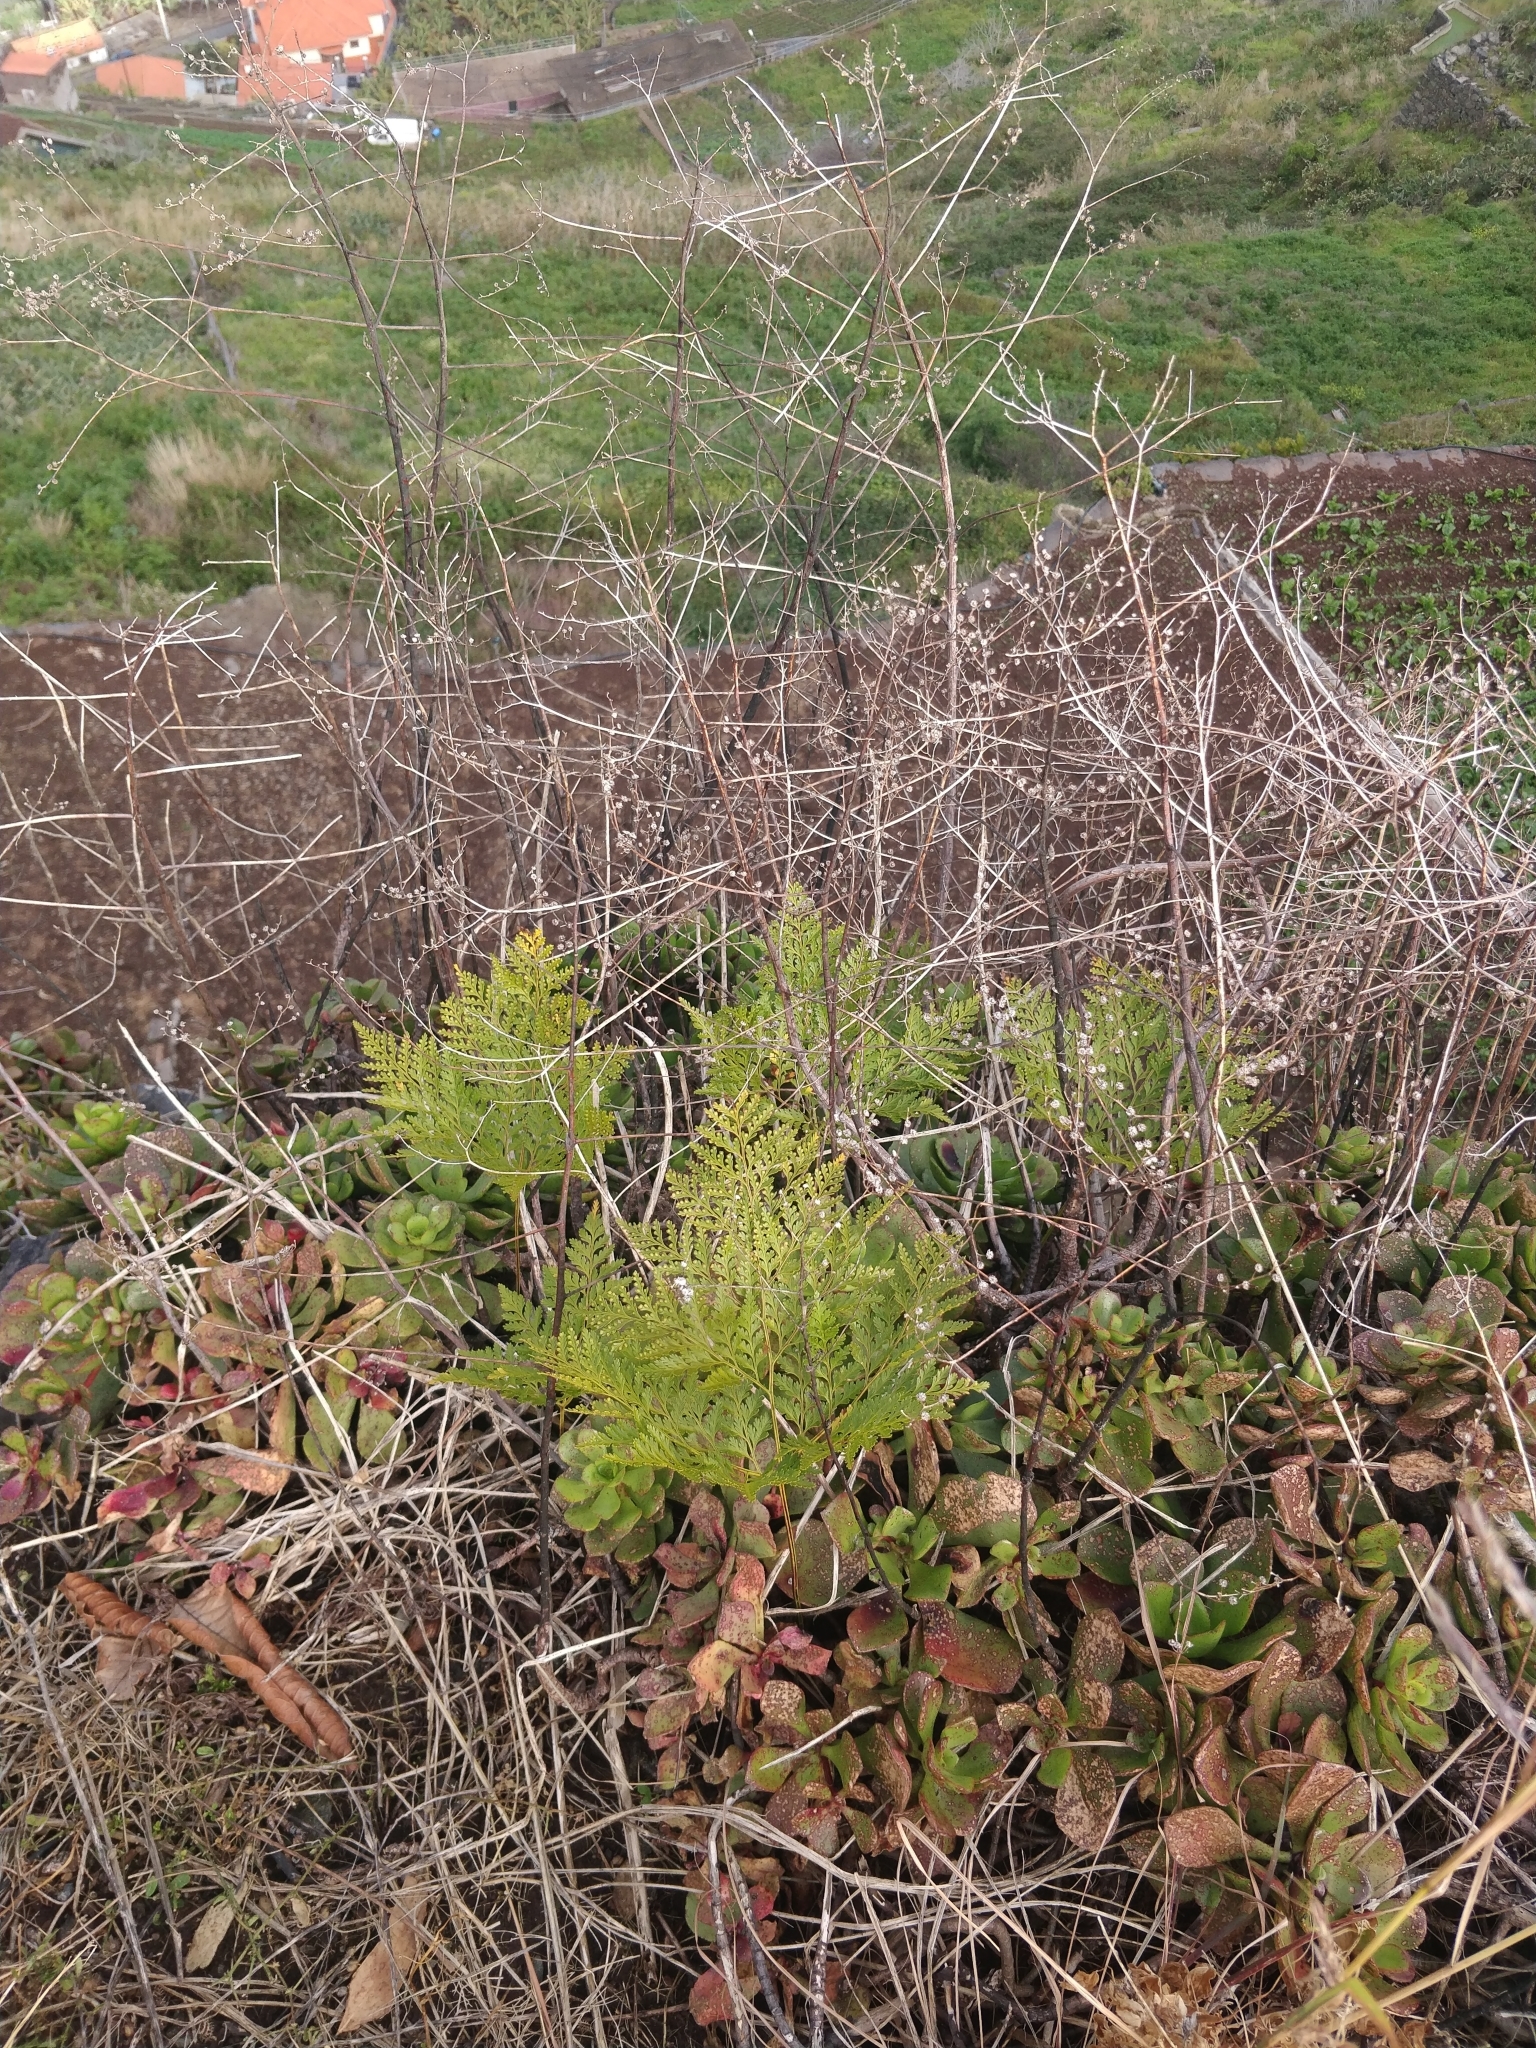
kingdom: Plantae
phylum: Tracheophyta
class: Polypodiopsida
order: Polypodiales
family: Davalliaceae
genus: Davallia
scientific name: Davallia canariensis
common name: Hare's-foot fern
